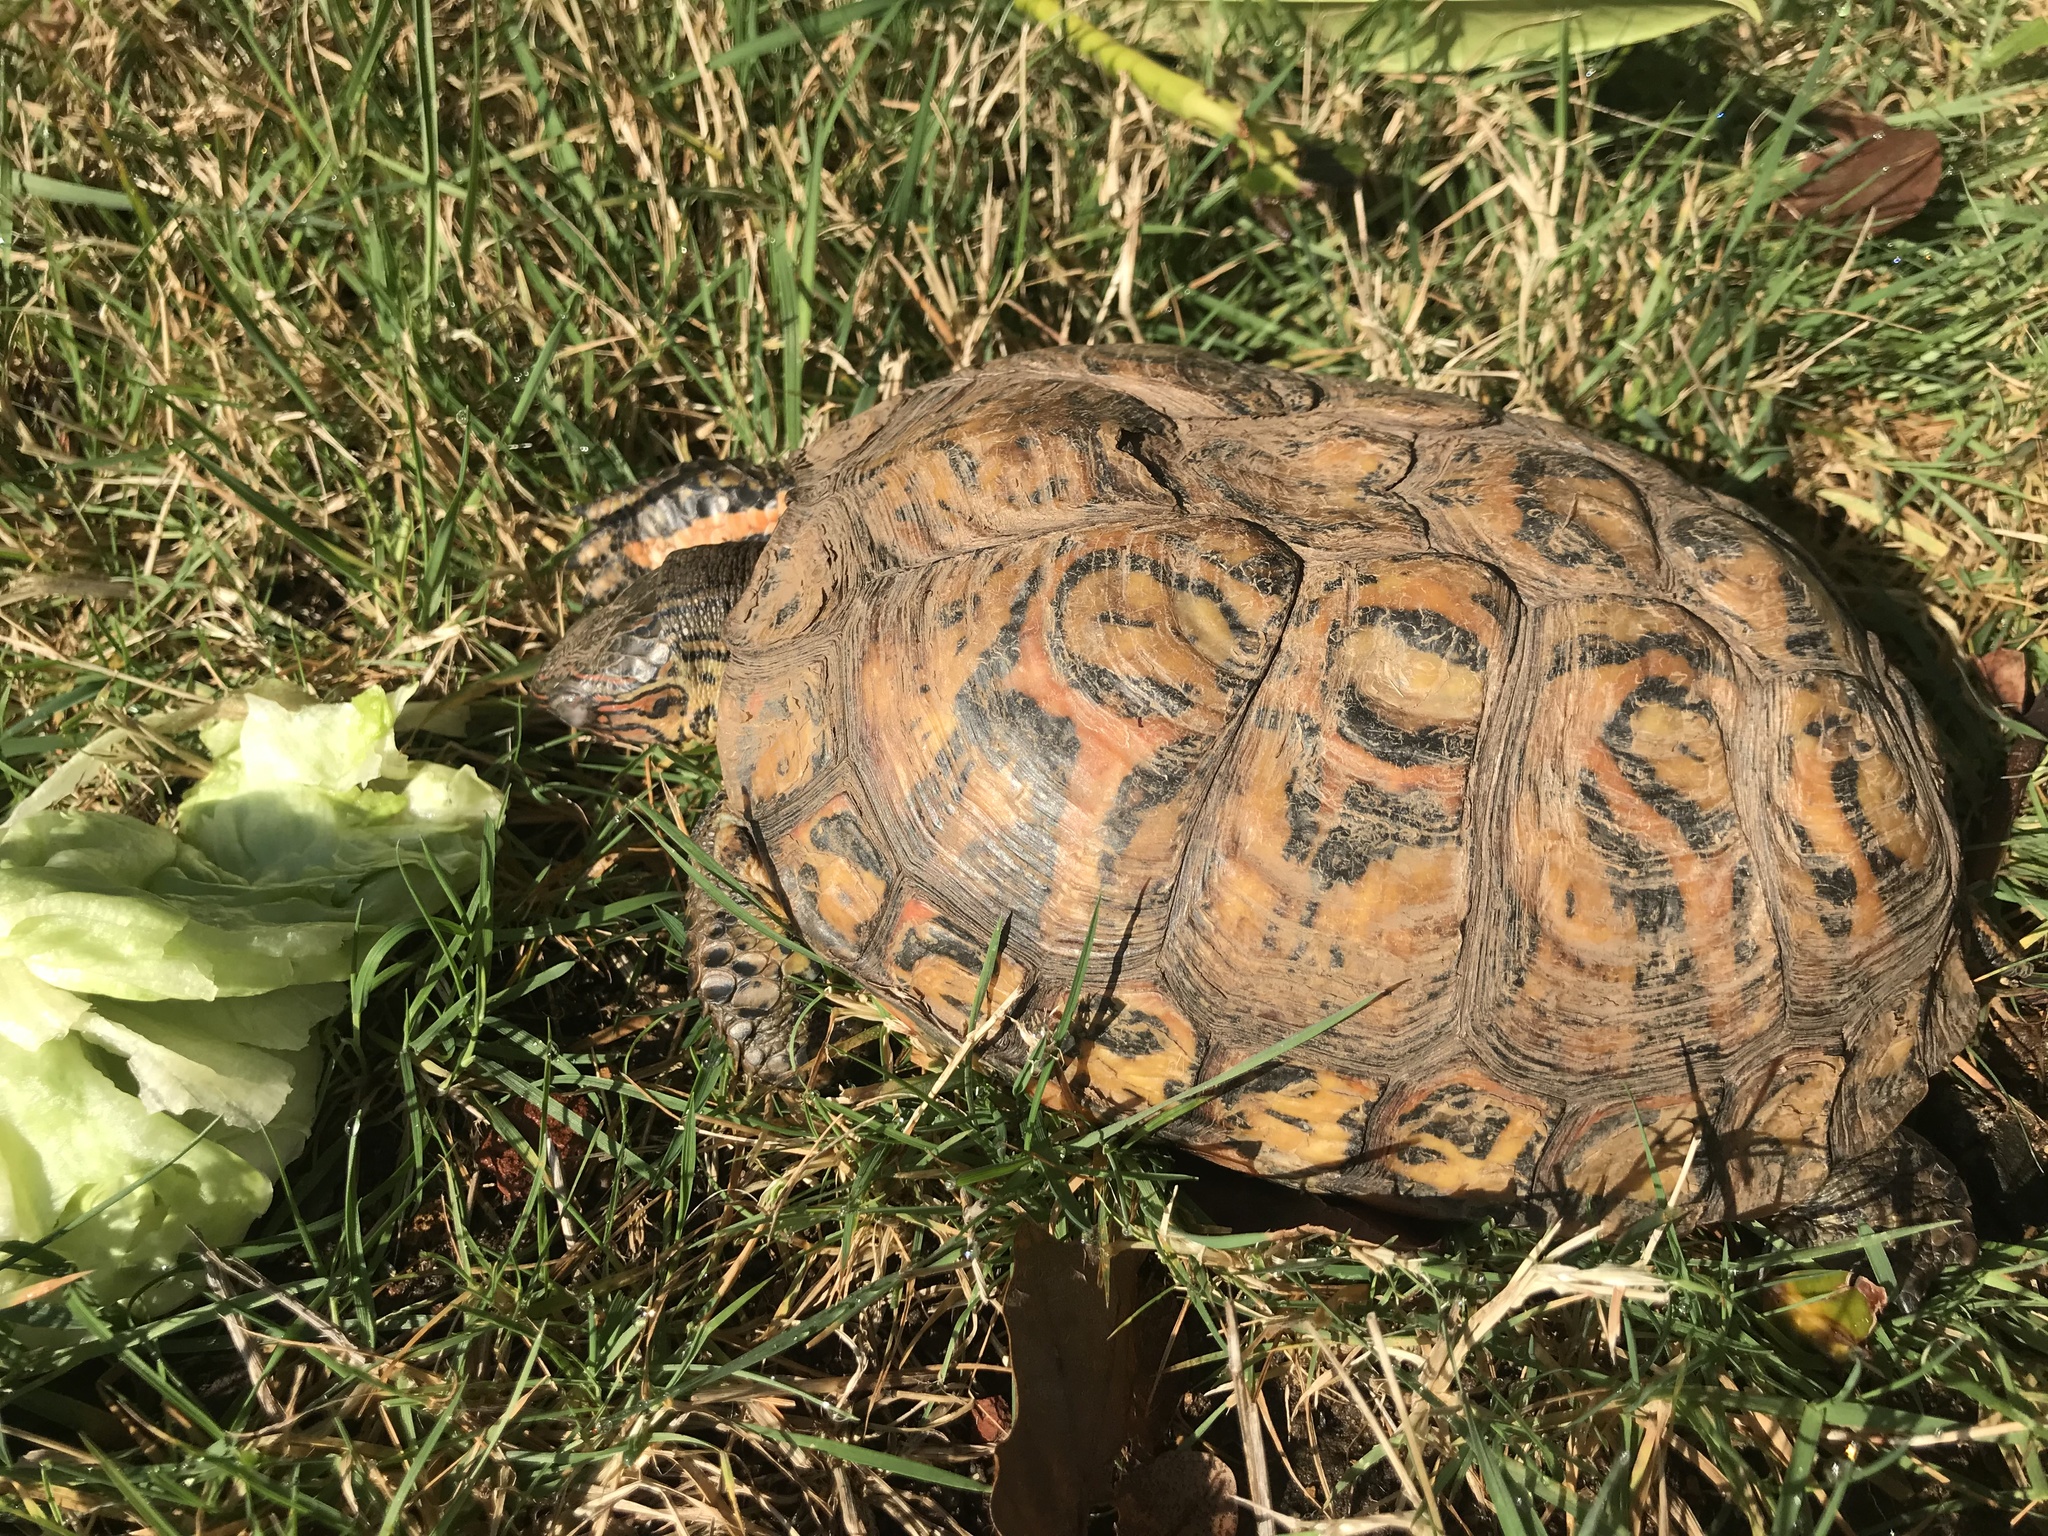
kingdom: Animalia
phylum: Chordata
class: Testudines
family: Geoemydidae
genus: Rhinoclemmys
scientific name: Rhinoclemmys pulcherrima
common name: Painted wood turtle
